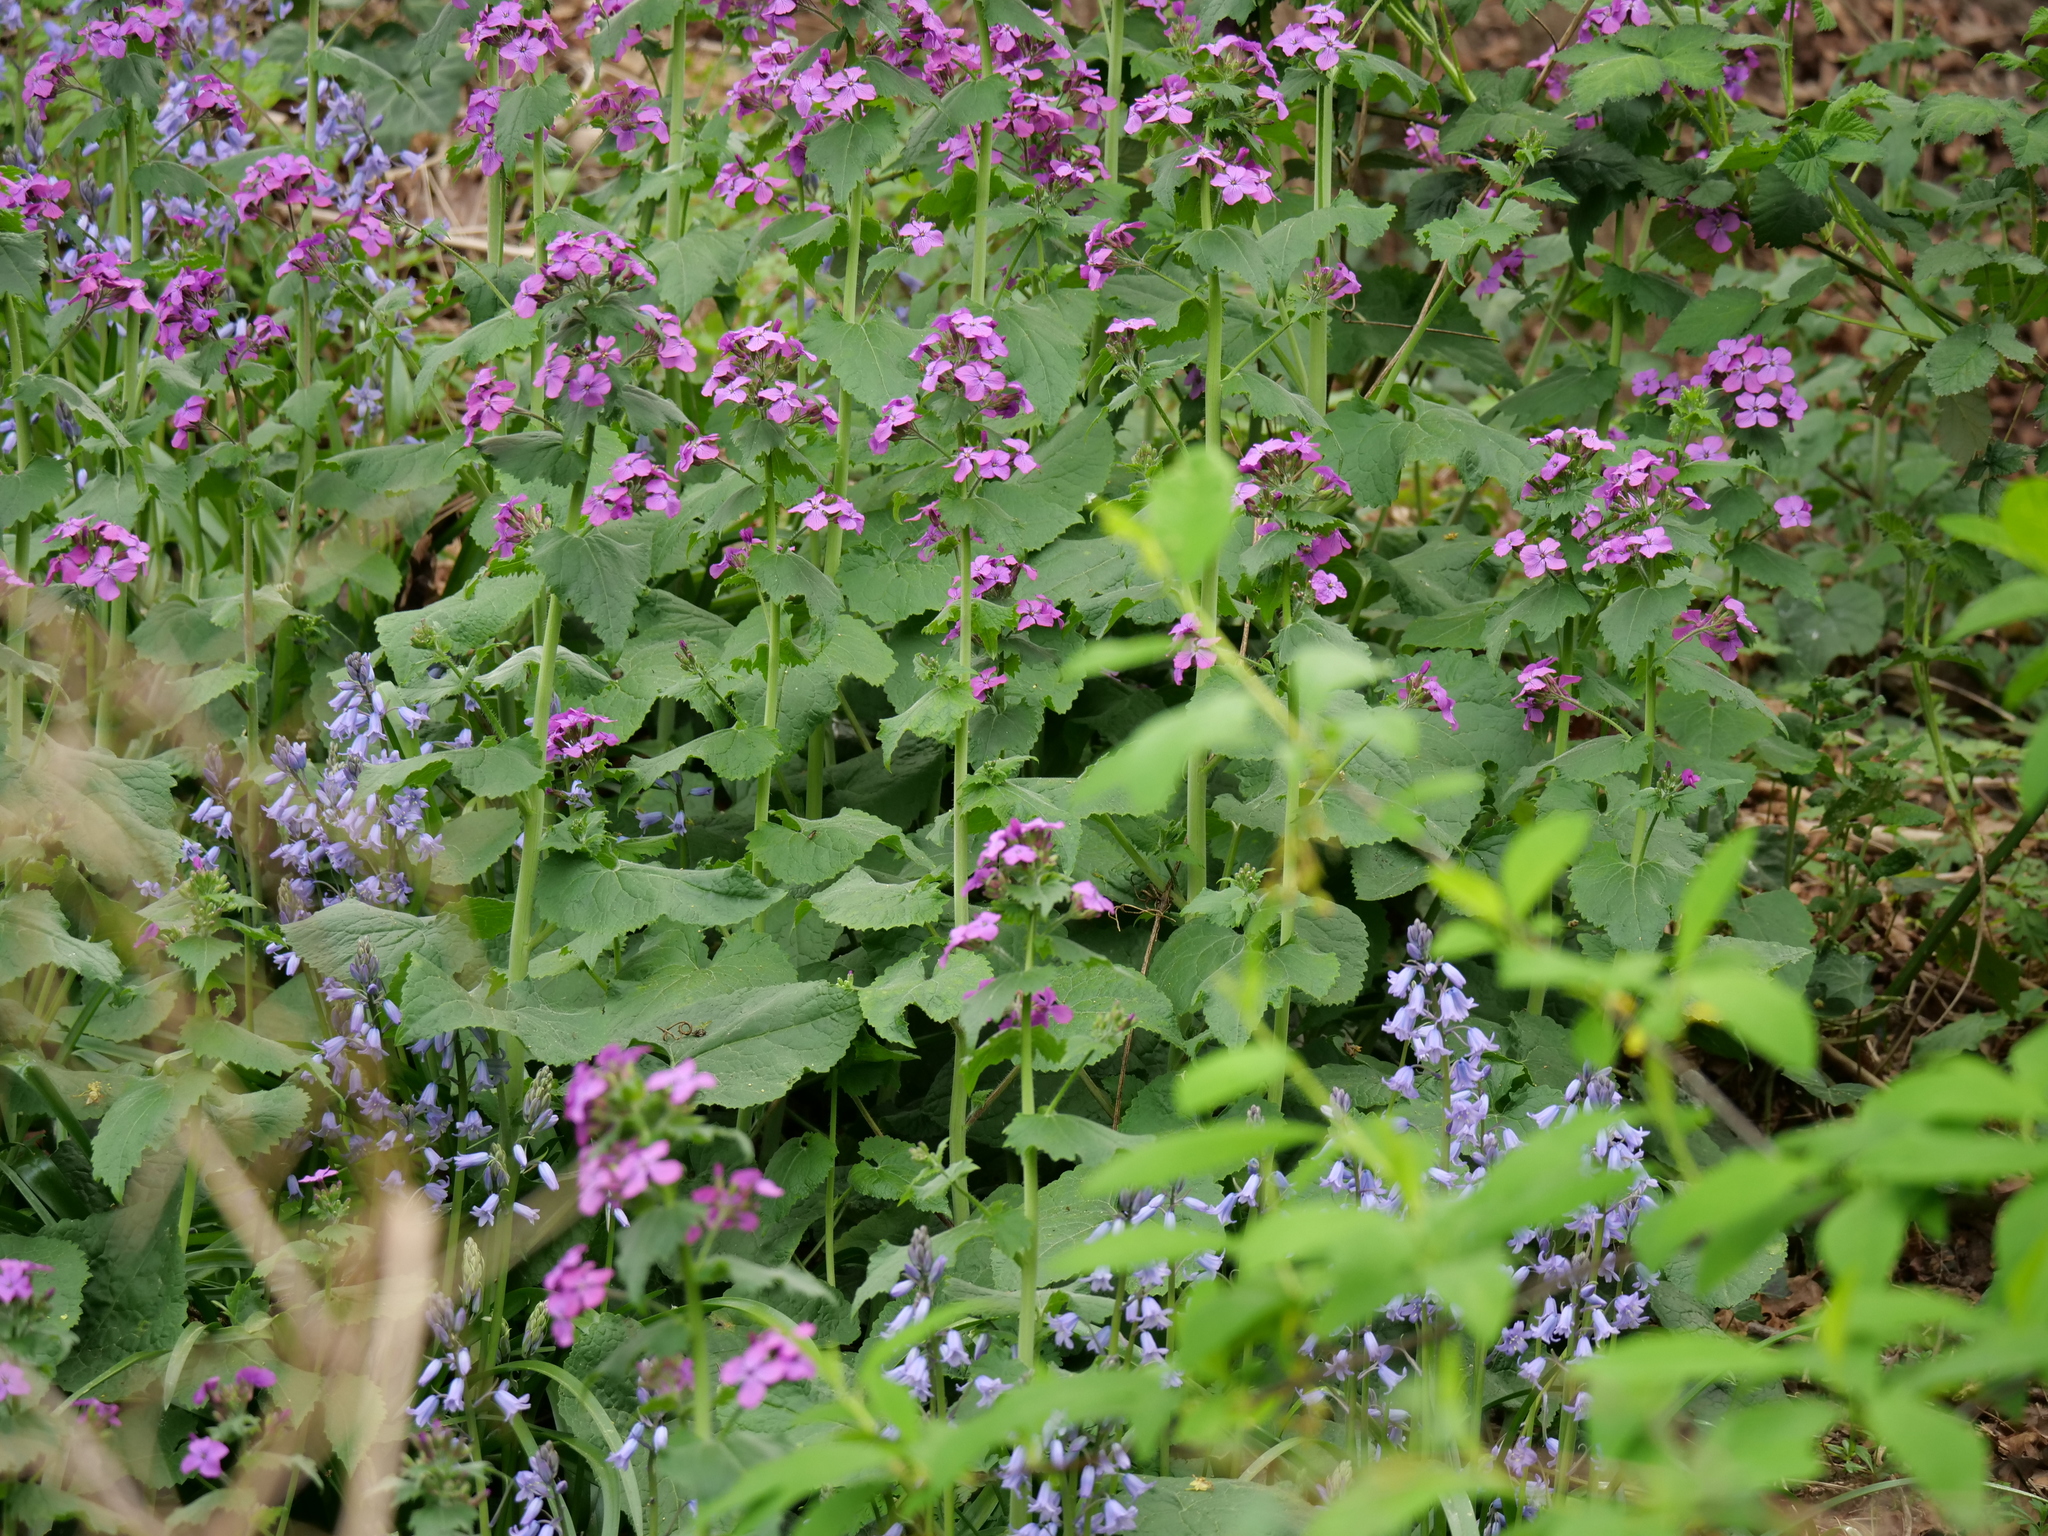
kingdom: Plantae
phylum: Tracheophyta
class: Magnoliopsida
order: Brassicales
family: Brassicaceae
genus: Lunaria
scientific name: Lunaria annua
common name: Honesty
